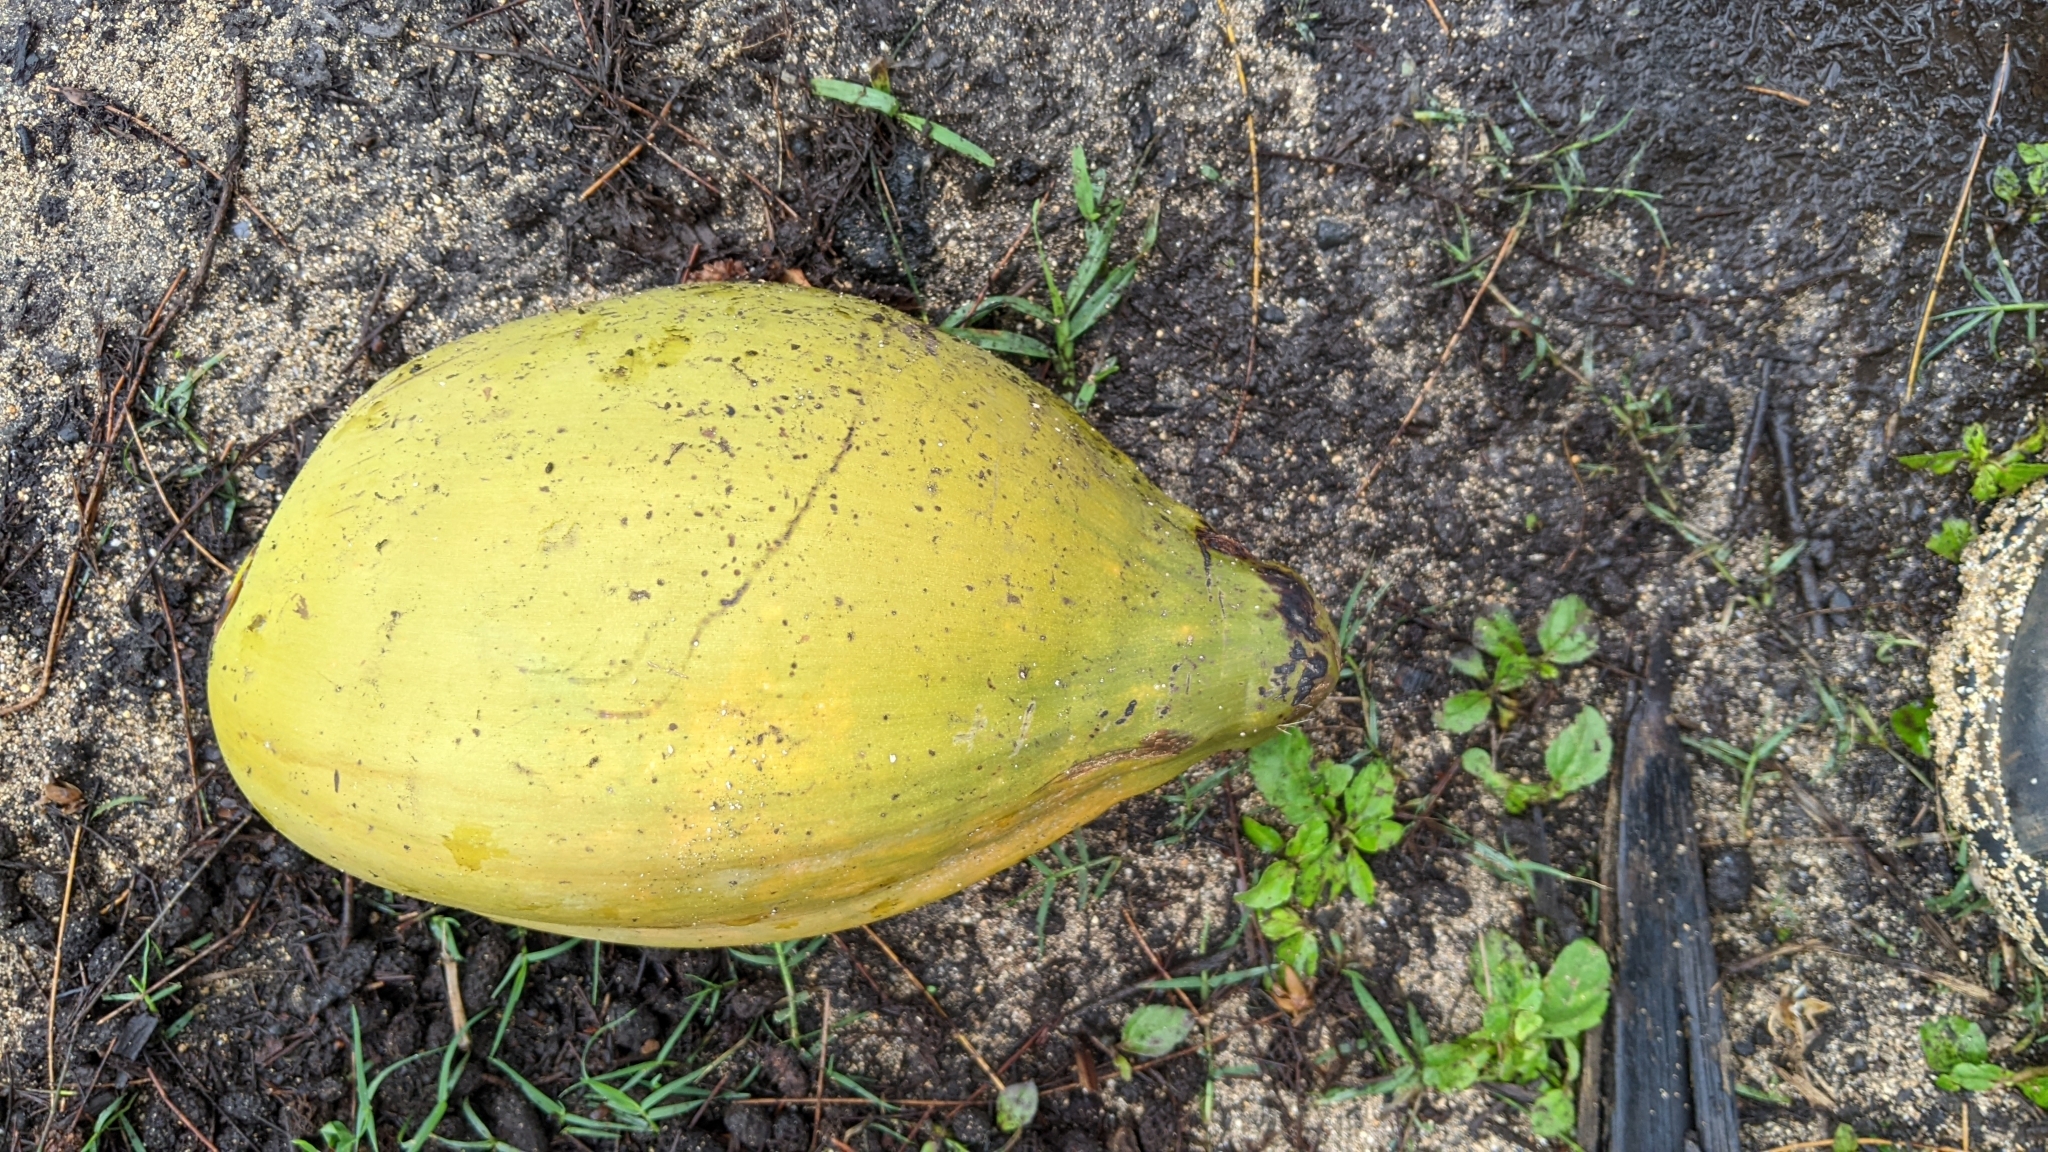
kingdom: Plantae
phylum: Tracheophyta
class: Liliopsida
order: Arecales
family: Arecaceae
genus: Cocos
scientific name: Cocos nucifera
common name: Coconut palm
